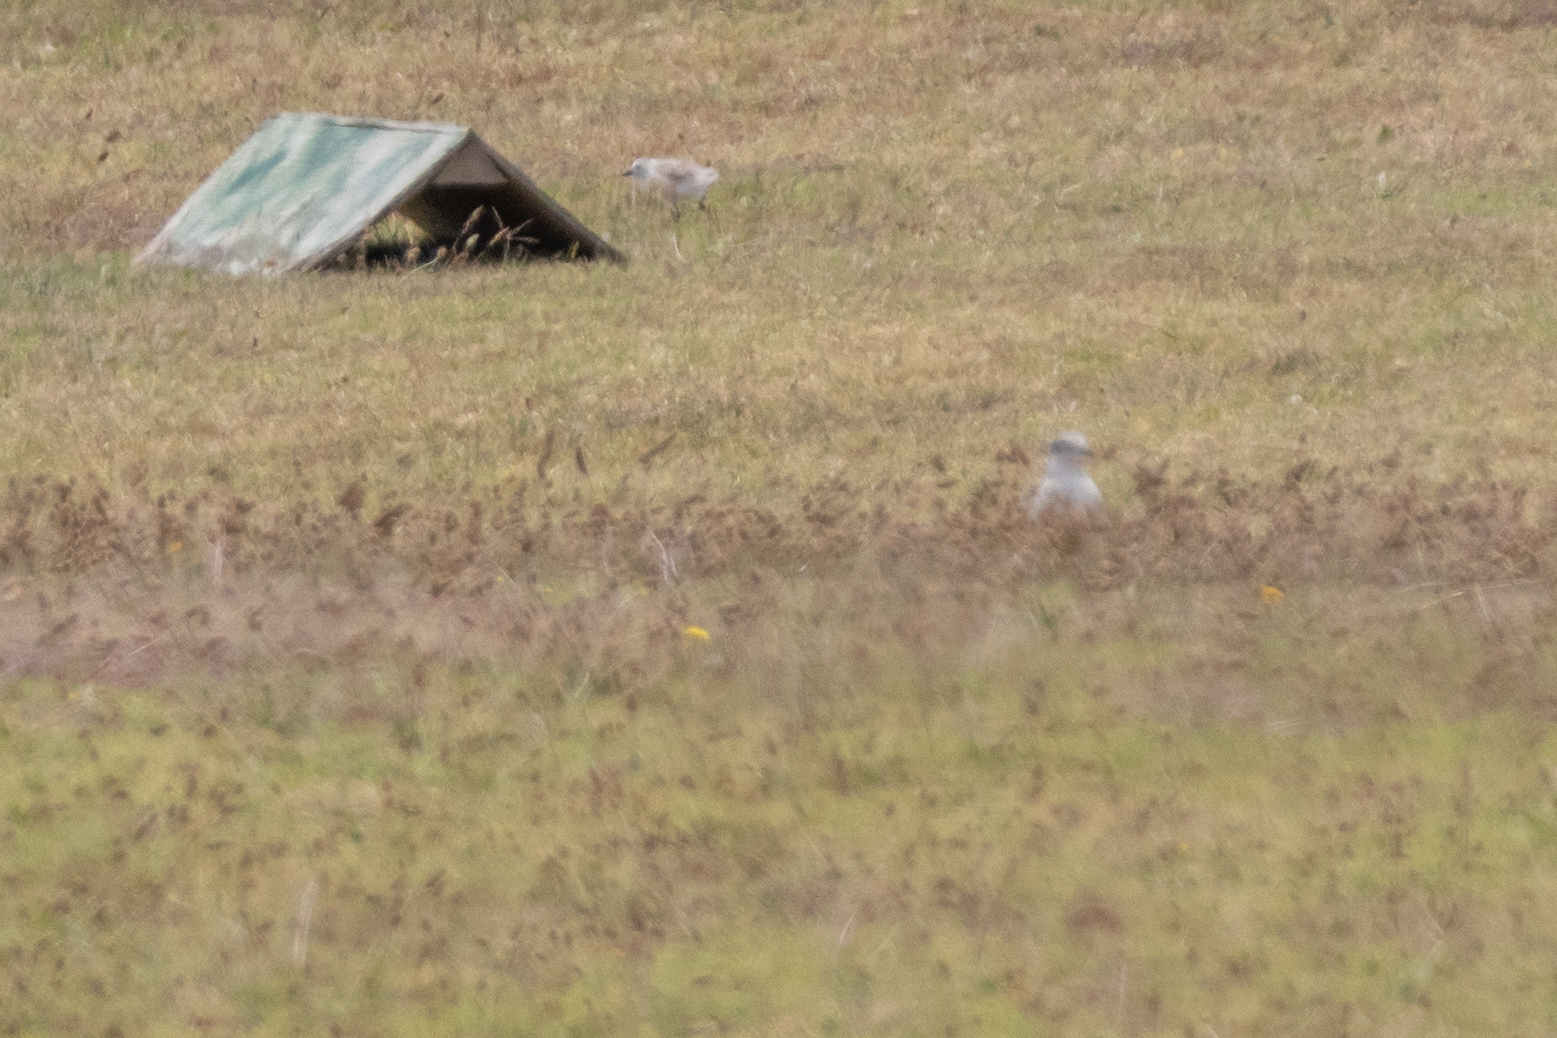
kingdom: Animalia
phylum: Chordata
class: Aves
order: Charadriiformes
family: Charadriidae
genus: Anarhynchus
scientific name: Anarhynchus
